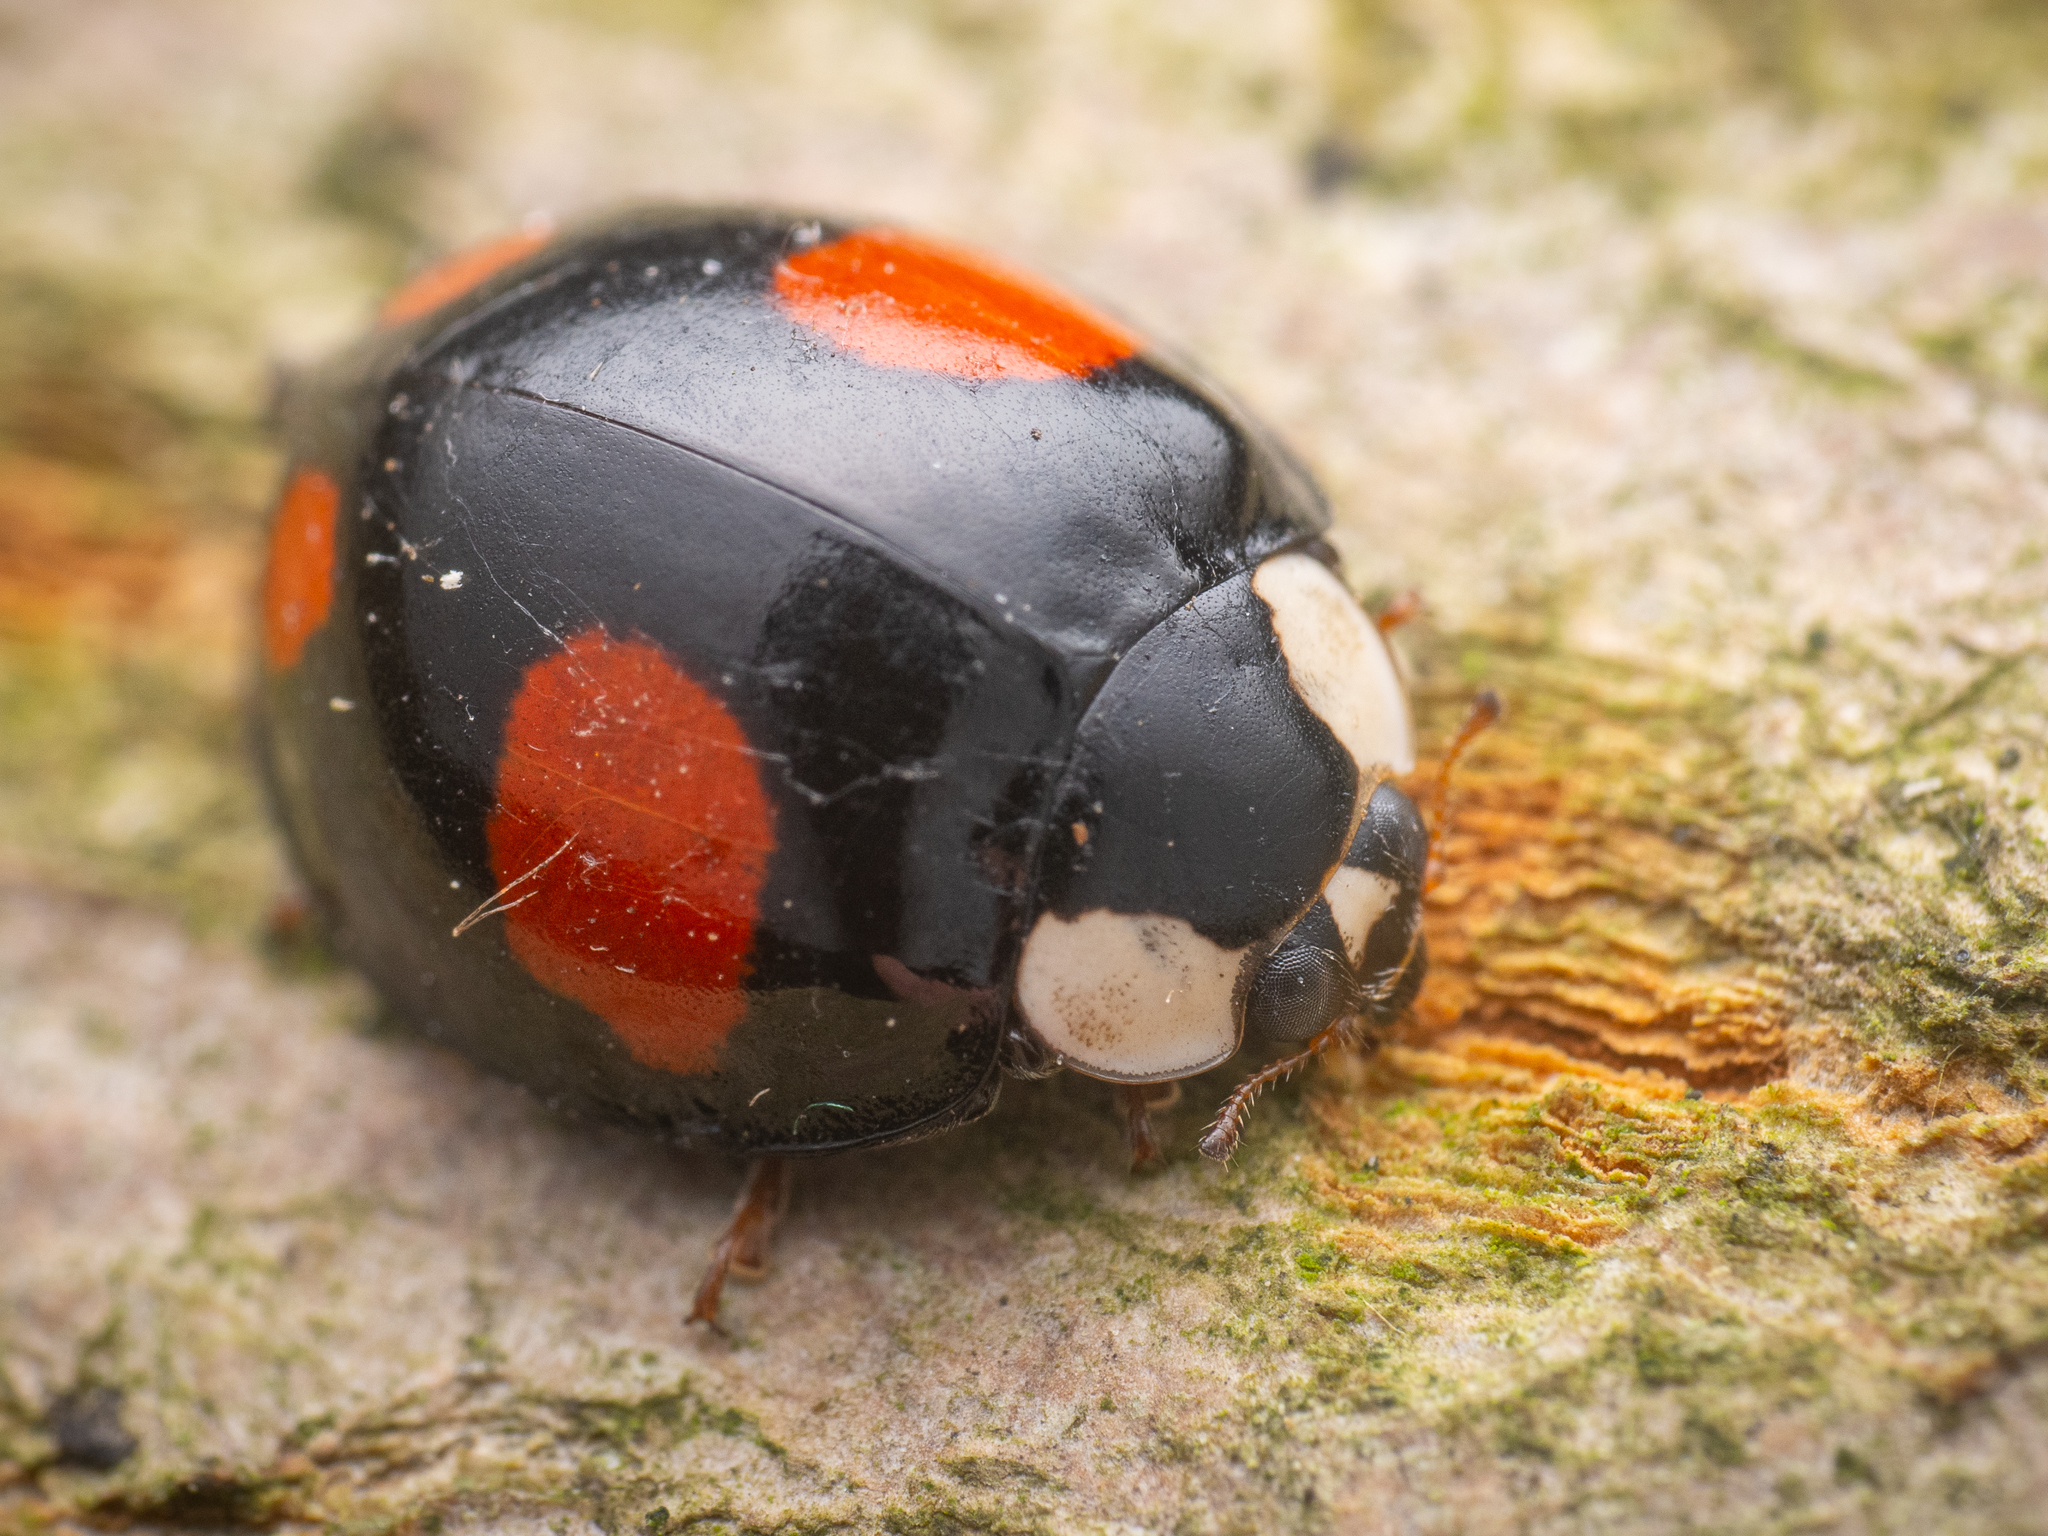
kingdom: Animalia
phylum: Arthropoda
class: Insecta
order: Coleoptera
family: Coccinellidae
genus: Harmonia
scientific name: Harmonia axyridis
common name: Harlequin ladybird
